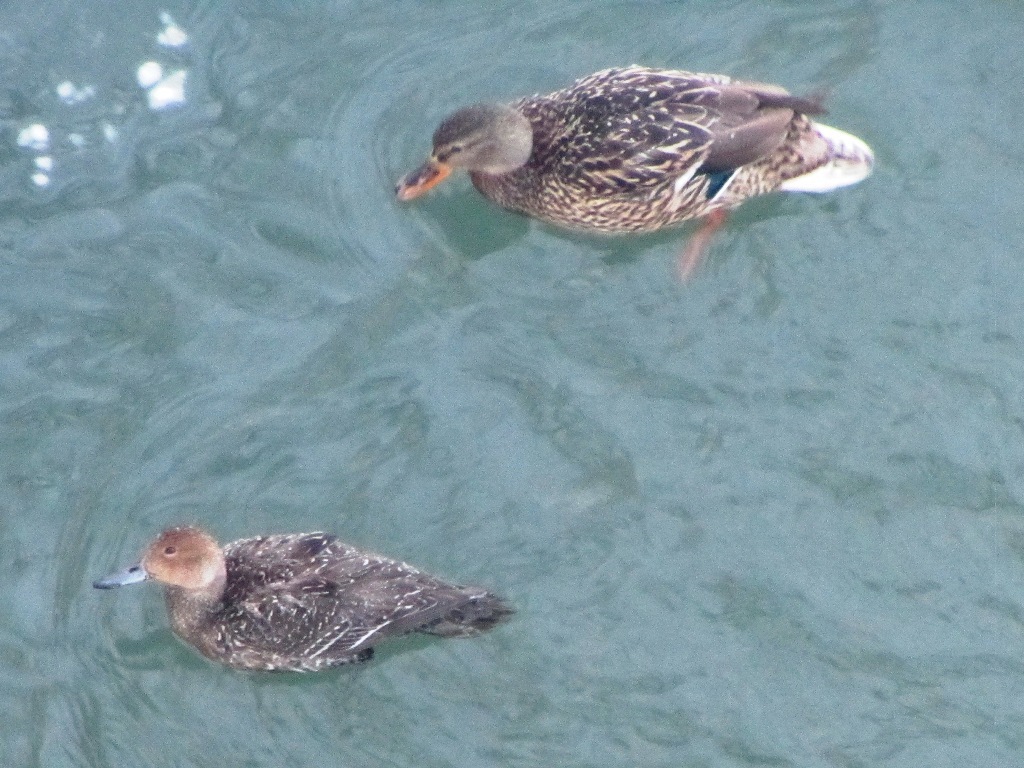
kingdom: Animalia
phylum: Chordata
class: Aves
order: Anseriformes
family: Anatidae
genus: Anas
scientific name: Anas acuta
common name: Northern pintail
